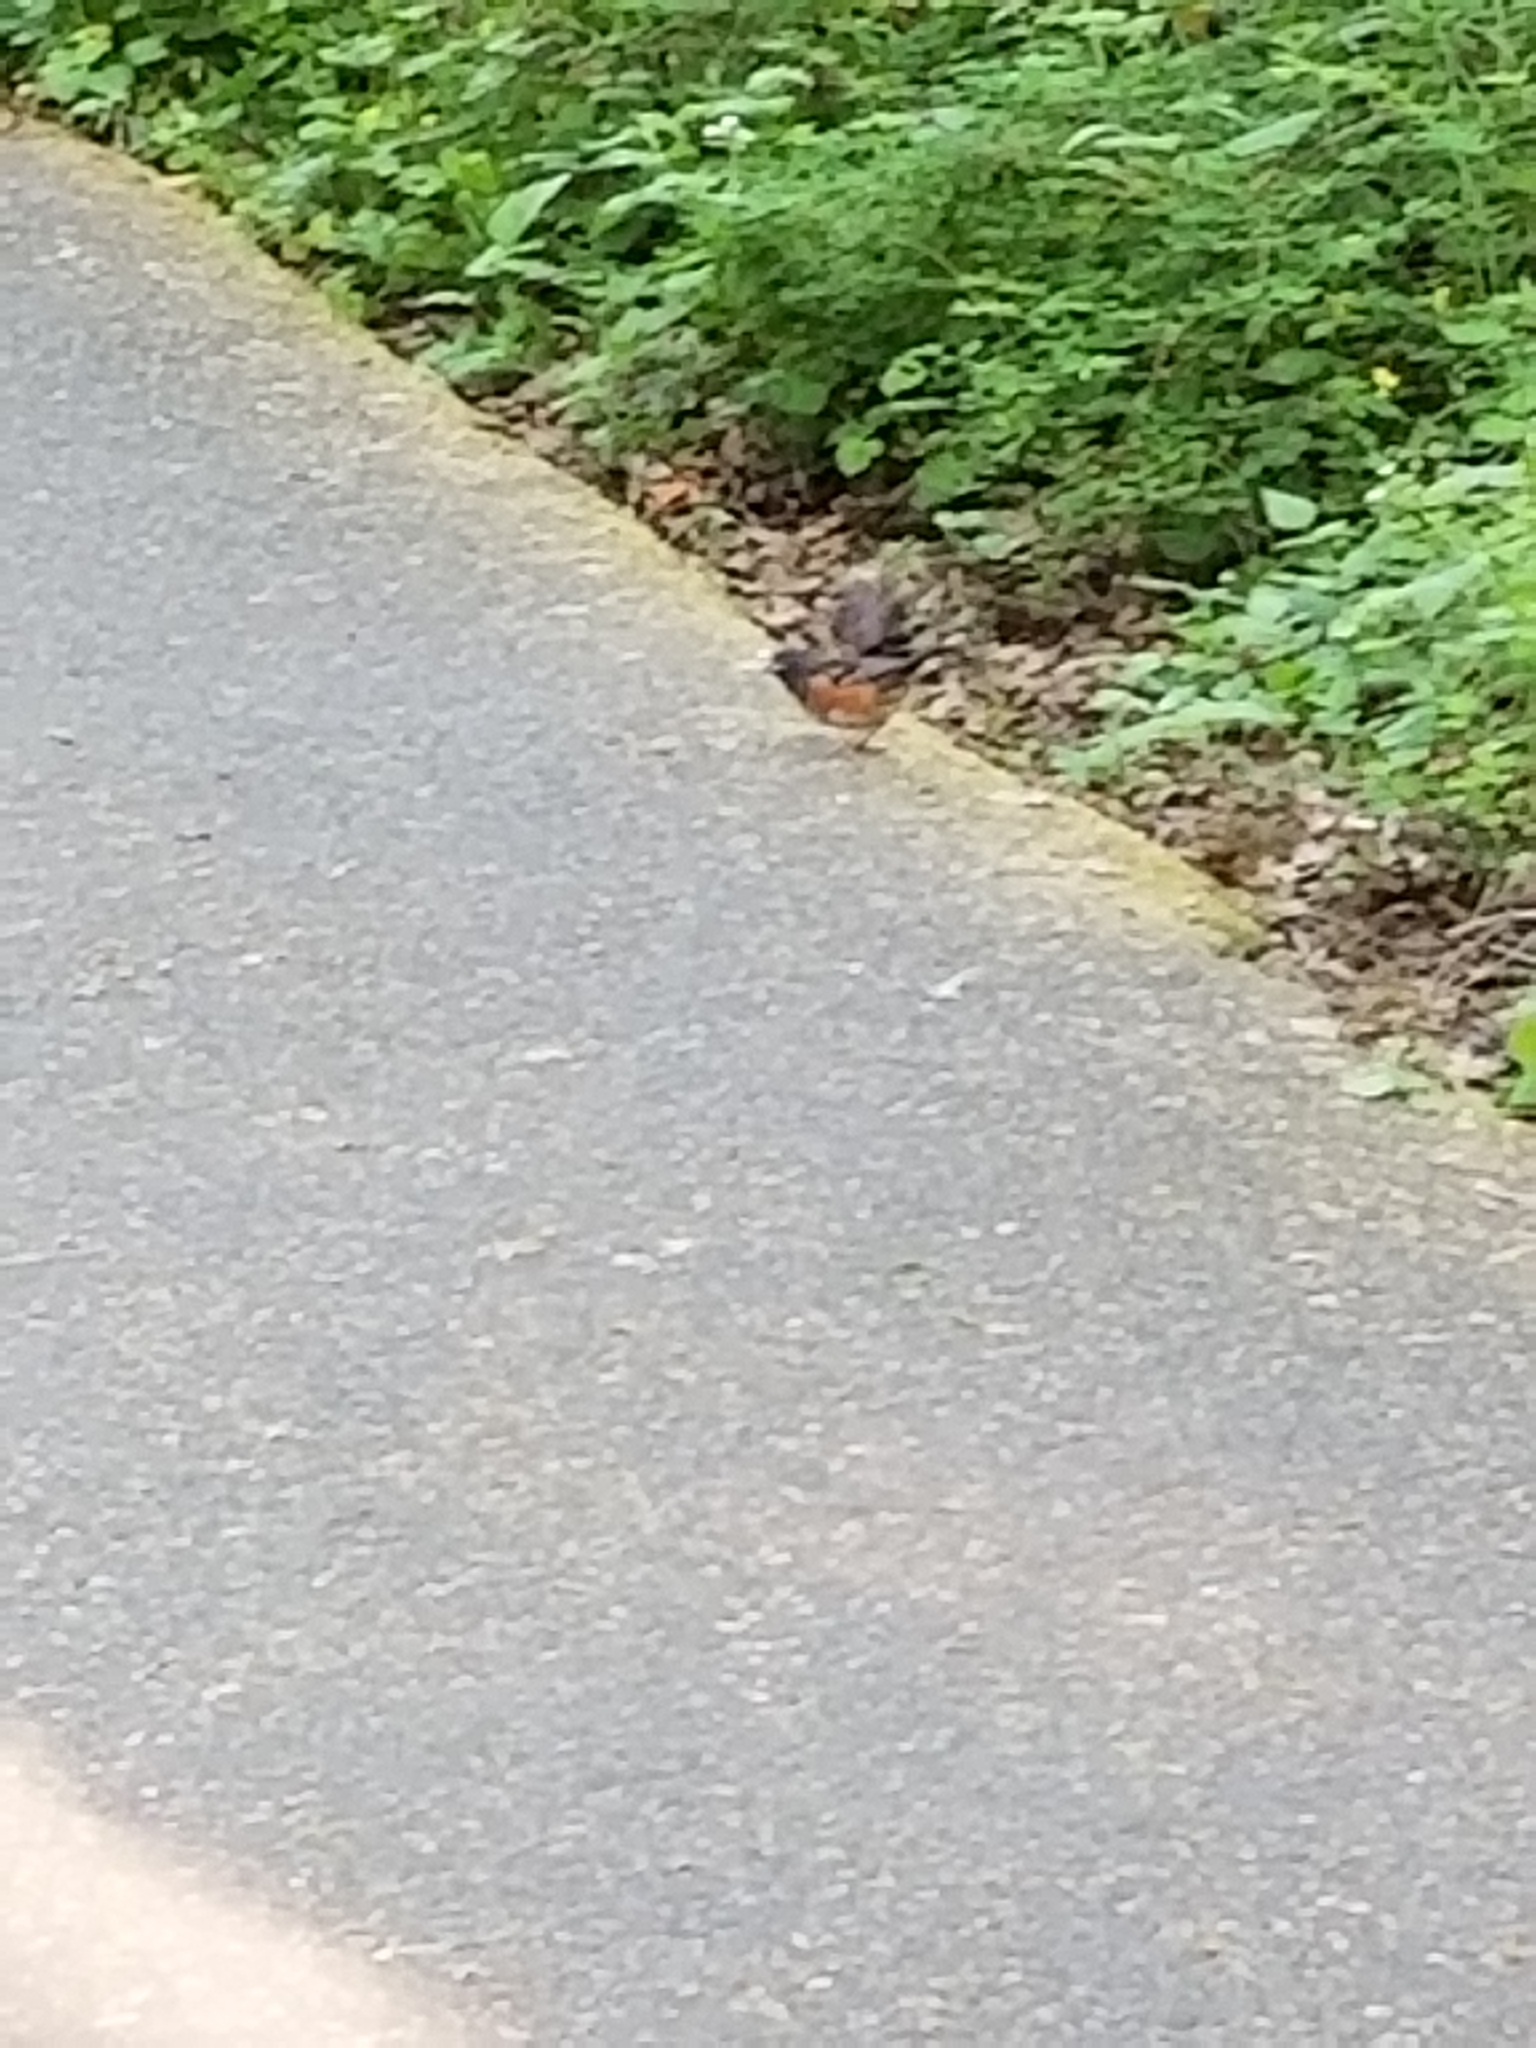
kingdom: Animalia
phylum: Chordata
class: Aves
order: Passeriformes
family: Passerellidae
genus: Pipilo
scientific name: Pipilo maculatus
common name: Spotted towhee
